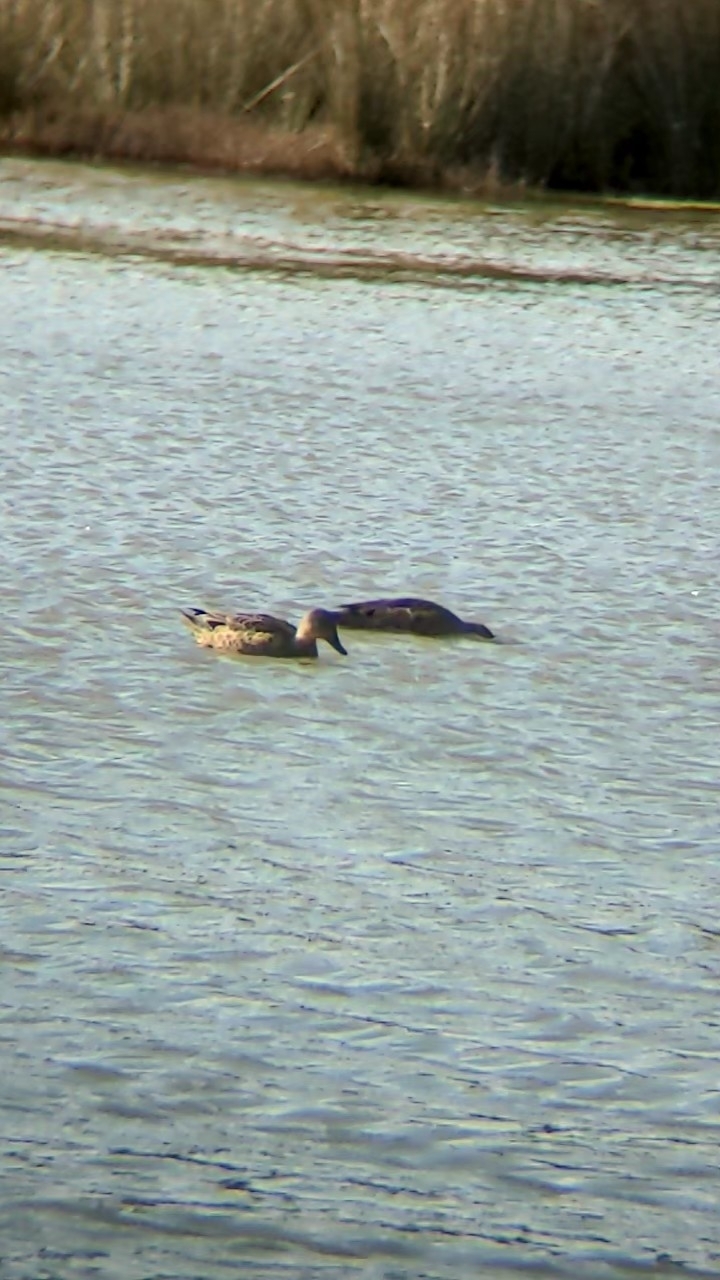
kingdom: Animalia
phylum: Chordata
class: Aves
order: Anseriformes
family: Anatidae
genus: Anas
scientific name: Anas gracilis
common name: Grey teal
